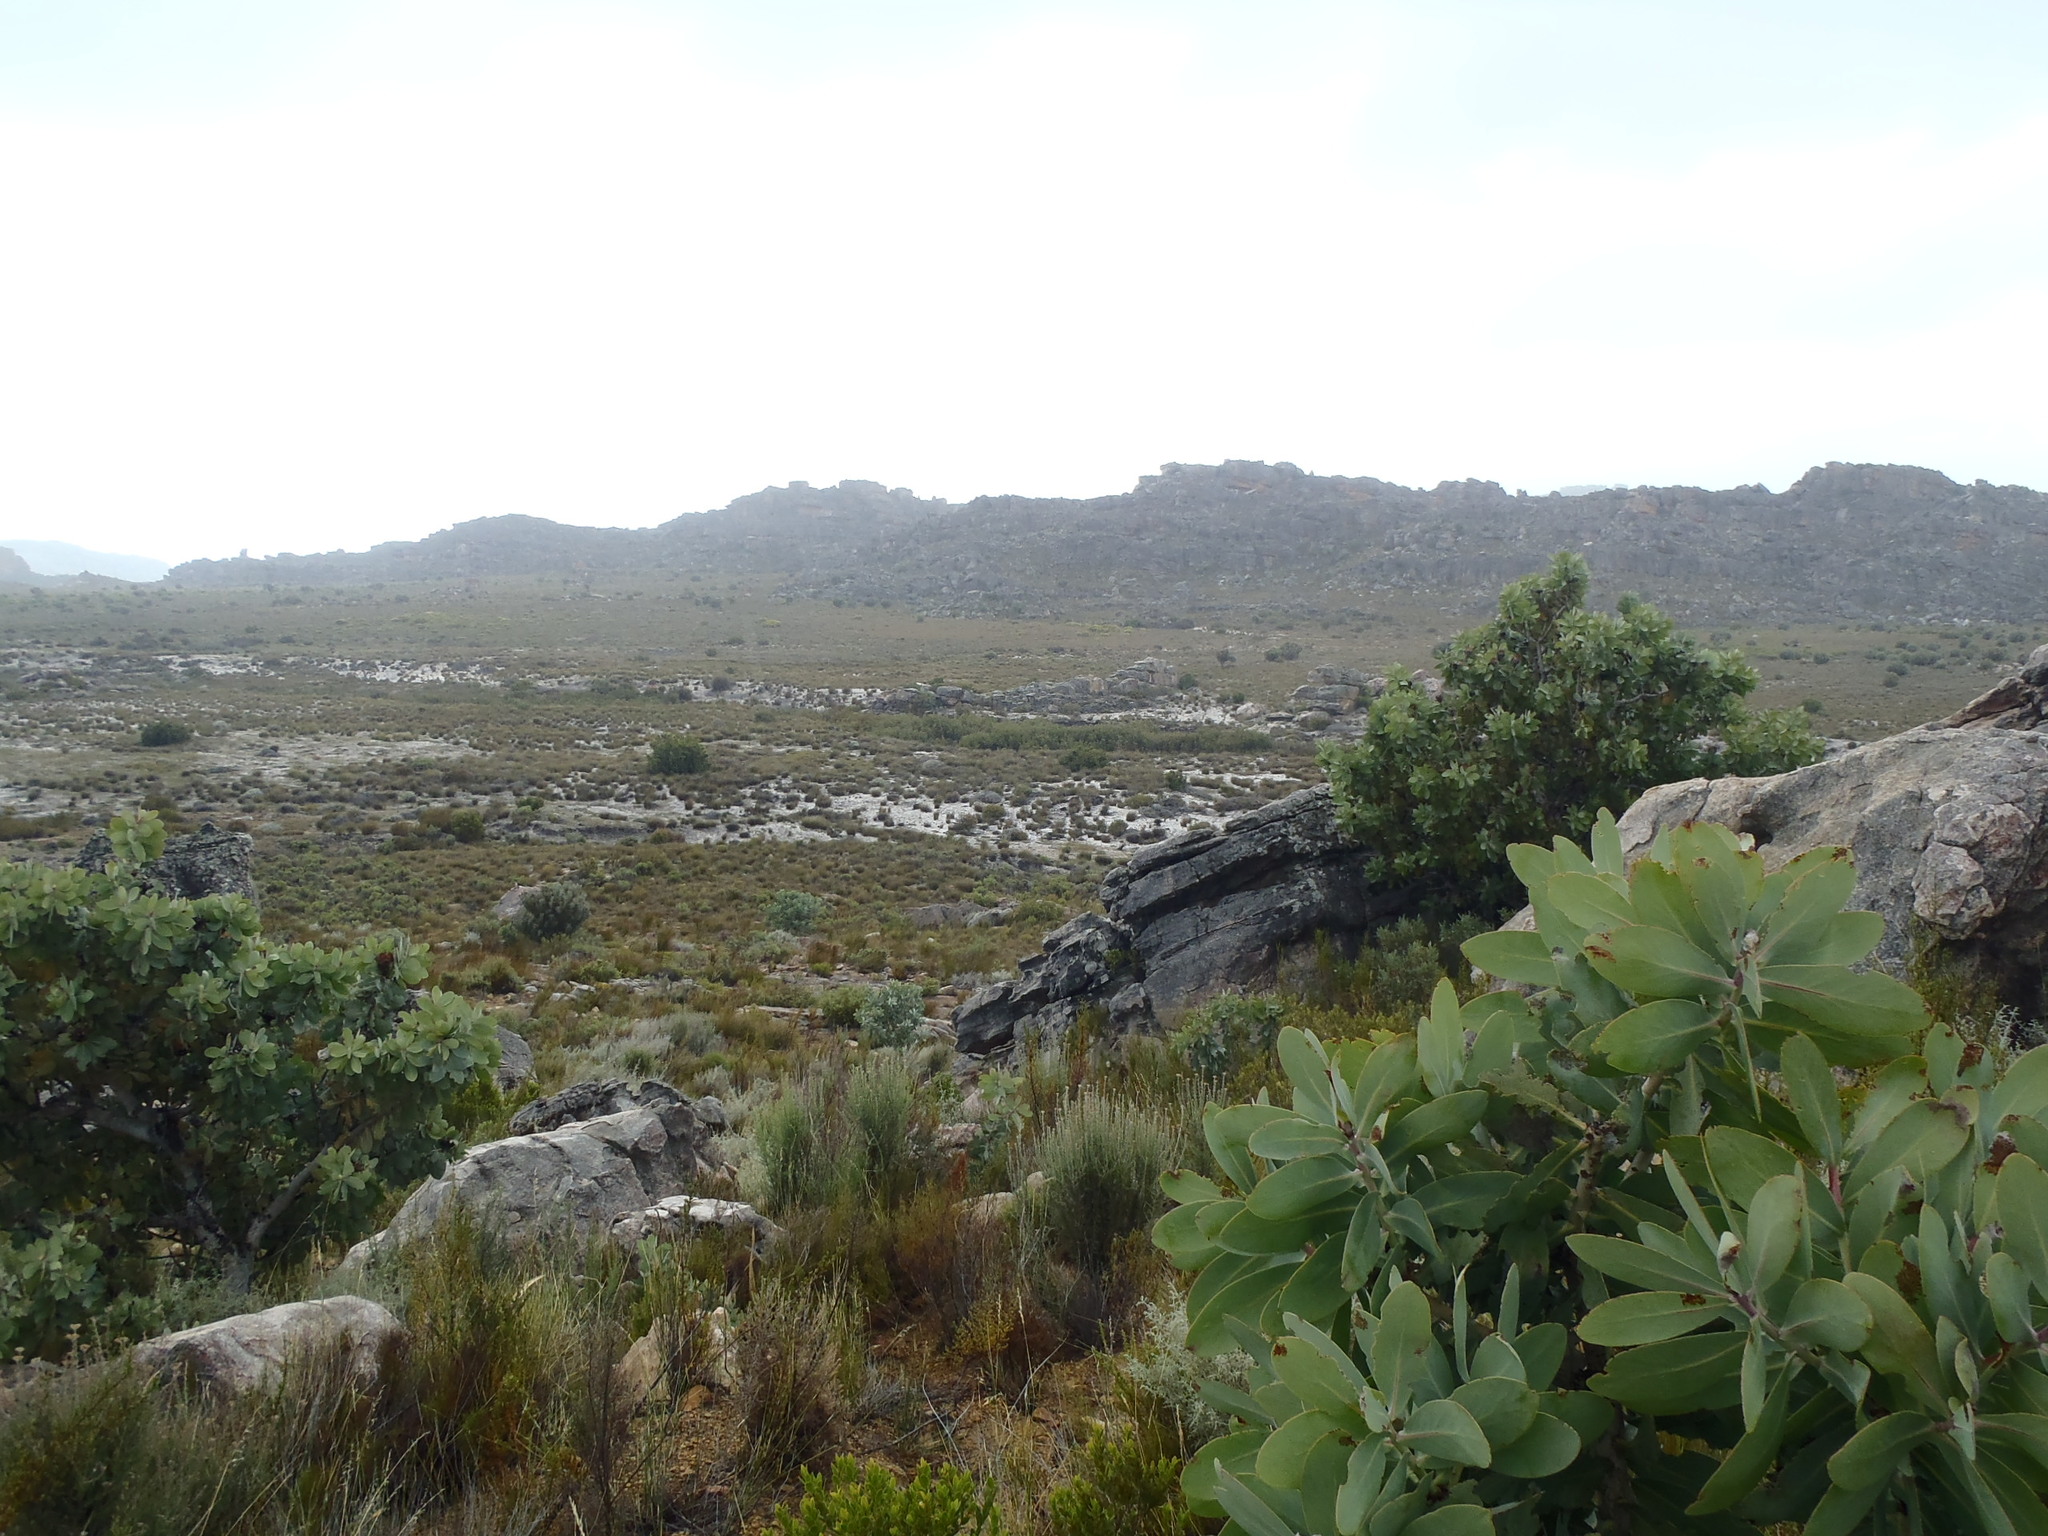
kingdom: Plantae
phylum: Tracheophyta
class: Magnoliopsida
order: Proteales
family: Proteaceae
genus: Protea
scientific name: Protea nitida
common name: Tree protea
